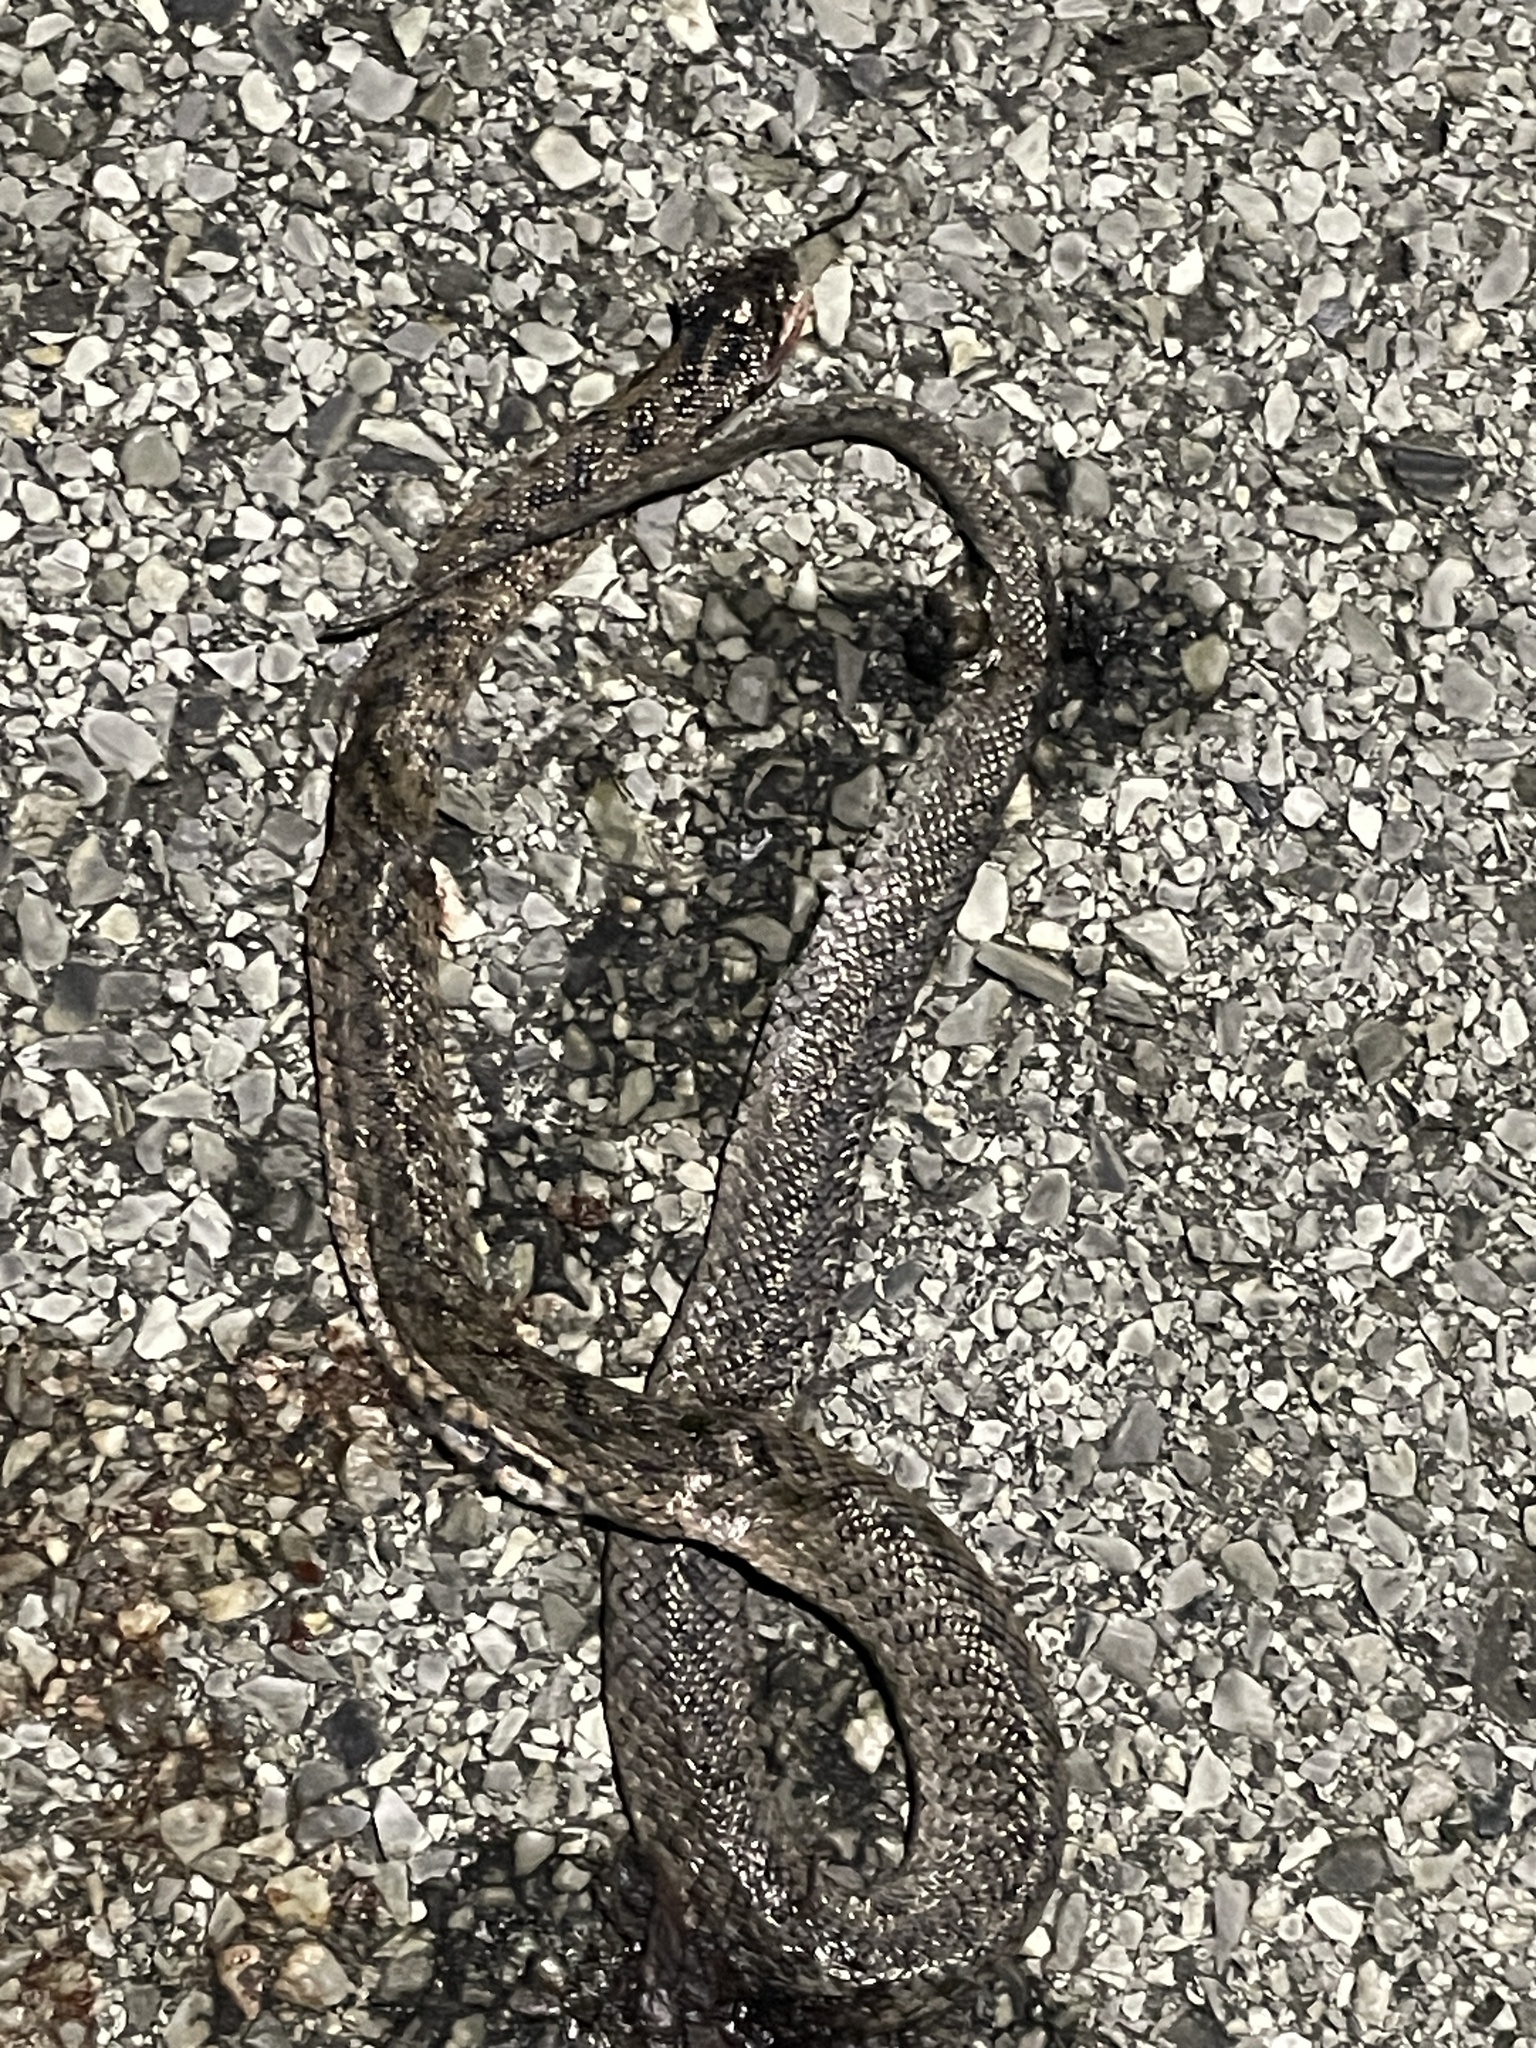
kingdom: Animalia
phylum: Chordata
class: Squamata
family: Colubridae
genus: Coronella
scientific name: Coronella girondica
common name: Southern smooth snake
